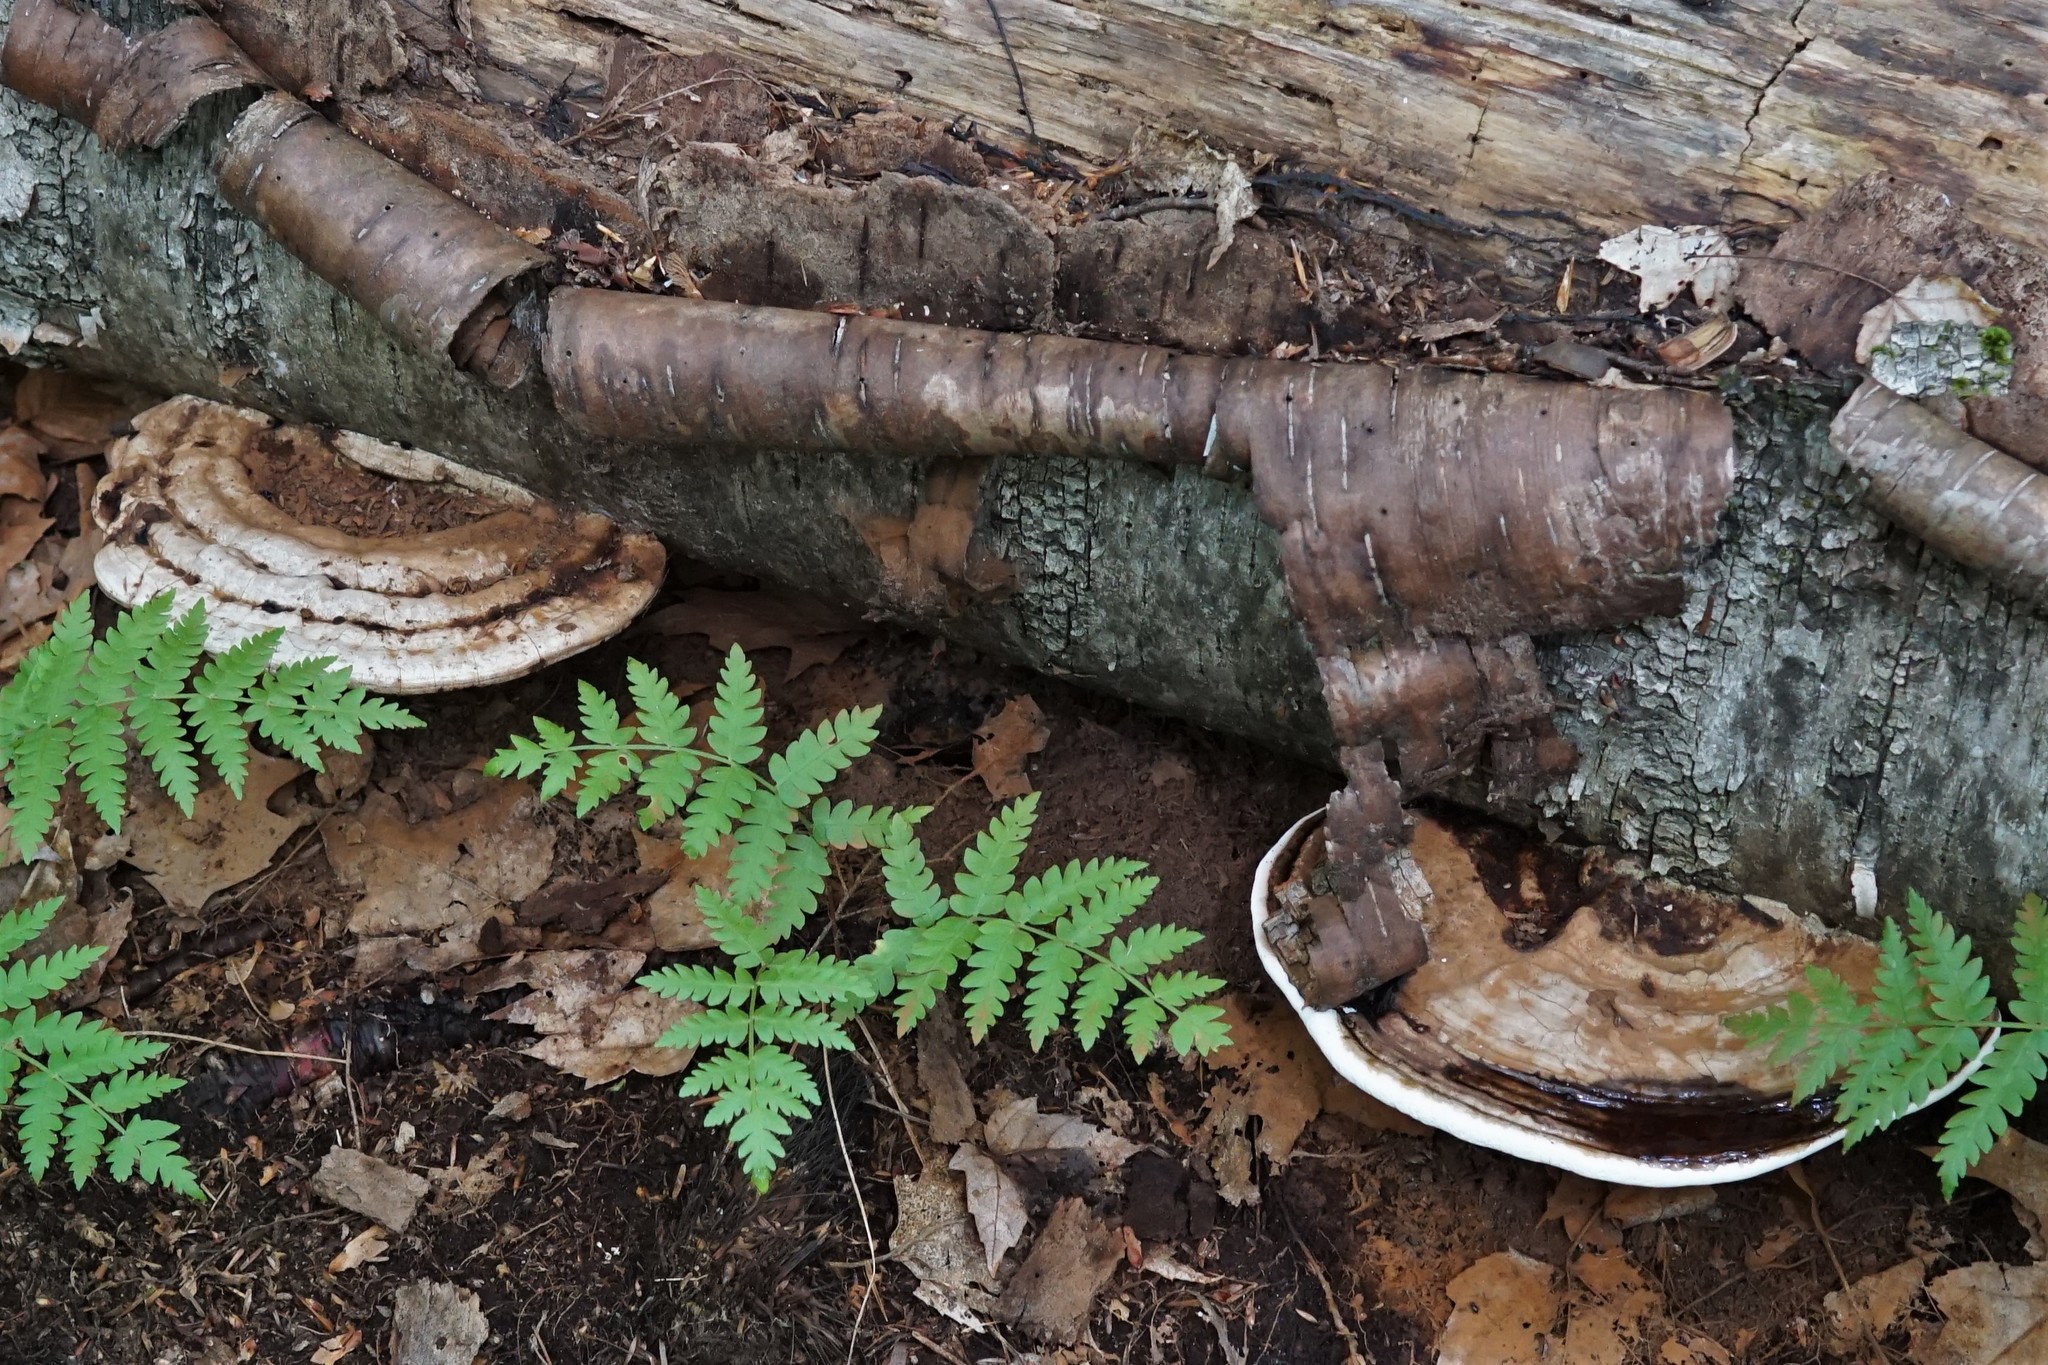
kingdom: Fungi
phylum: Basidiomycota
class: Agaricomycetes
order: Polyporales
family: Polyporaceae
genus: Ganoderma
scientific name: Ganoderma applanatum
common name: Artist's bracket
